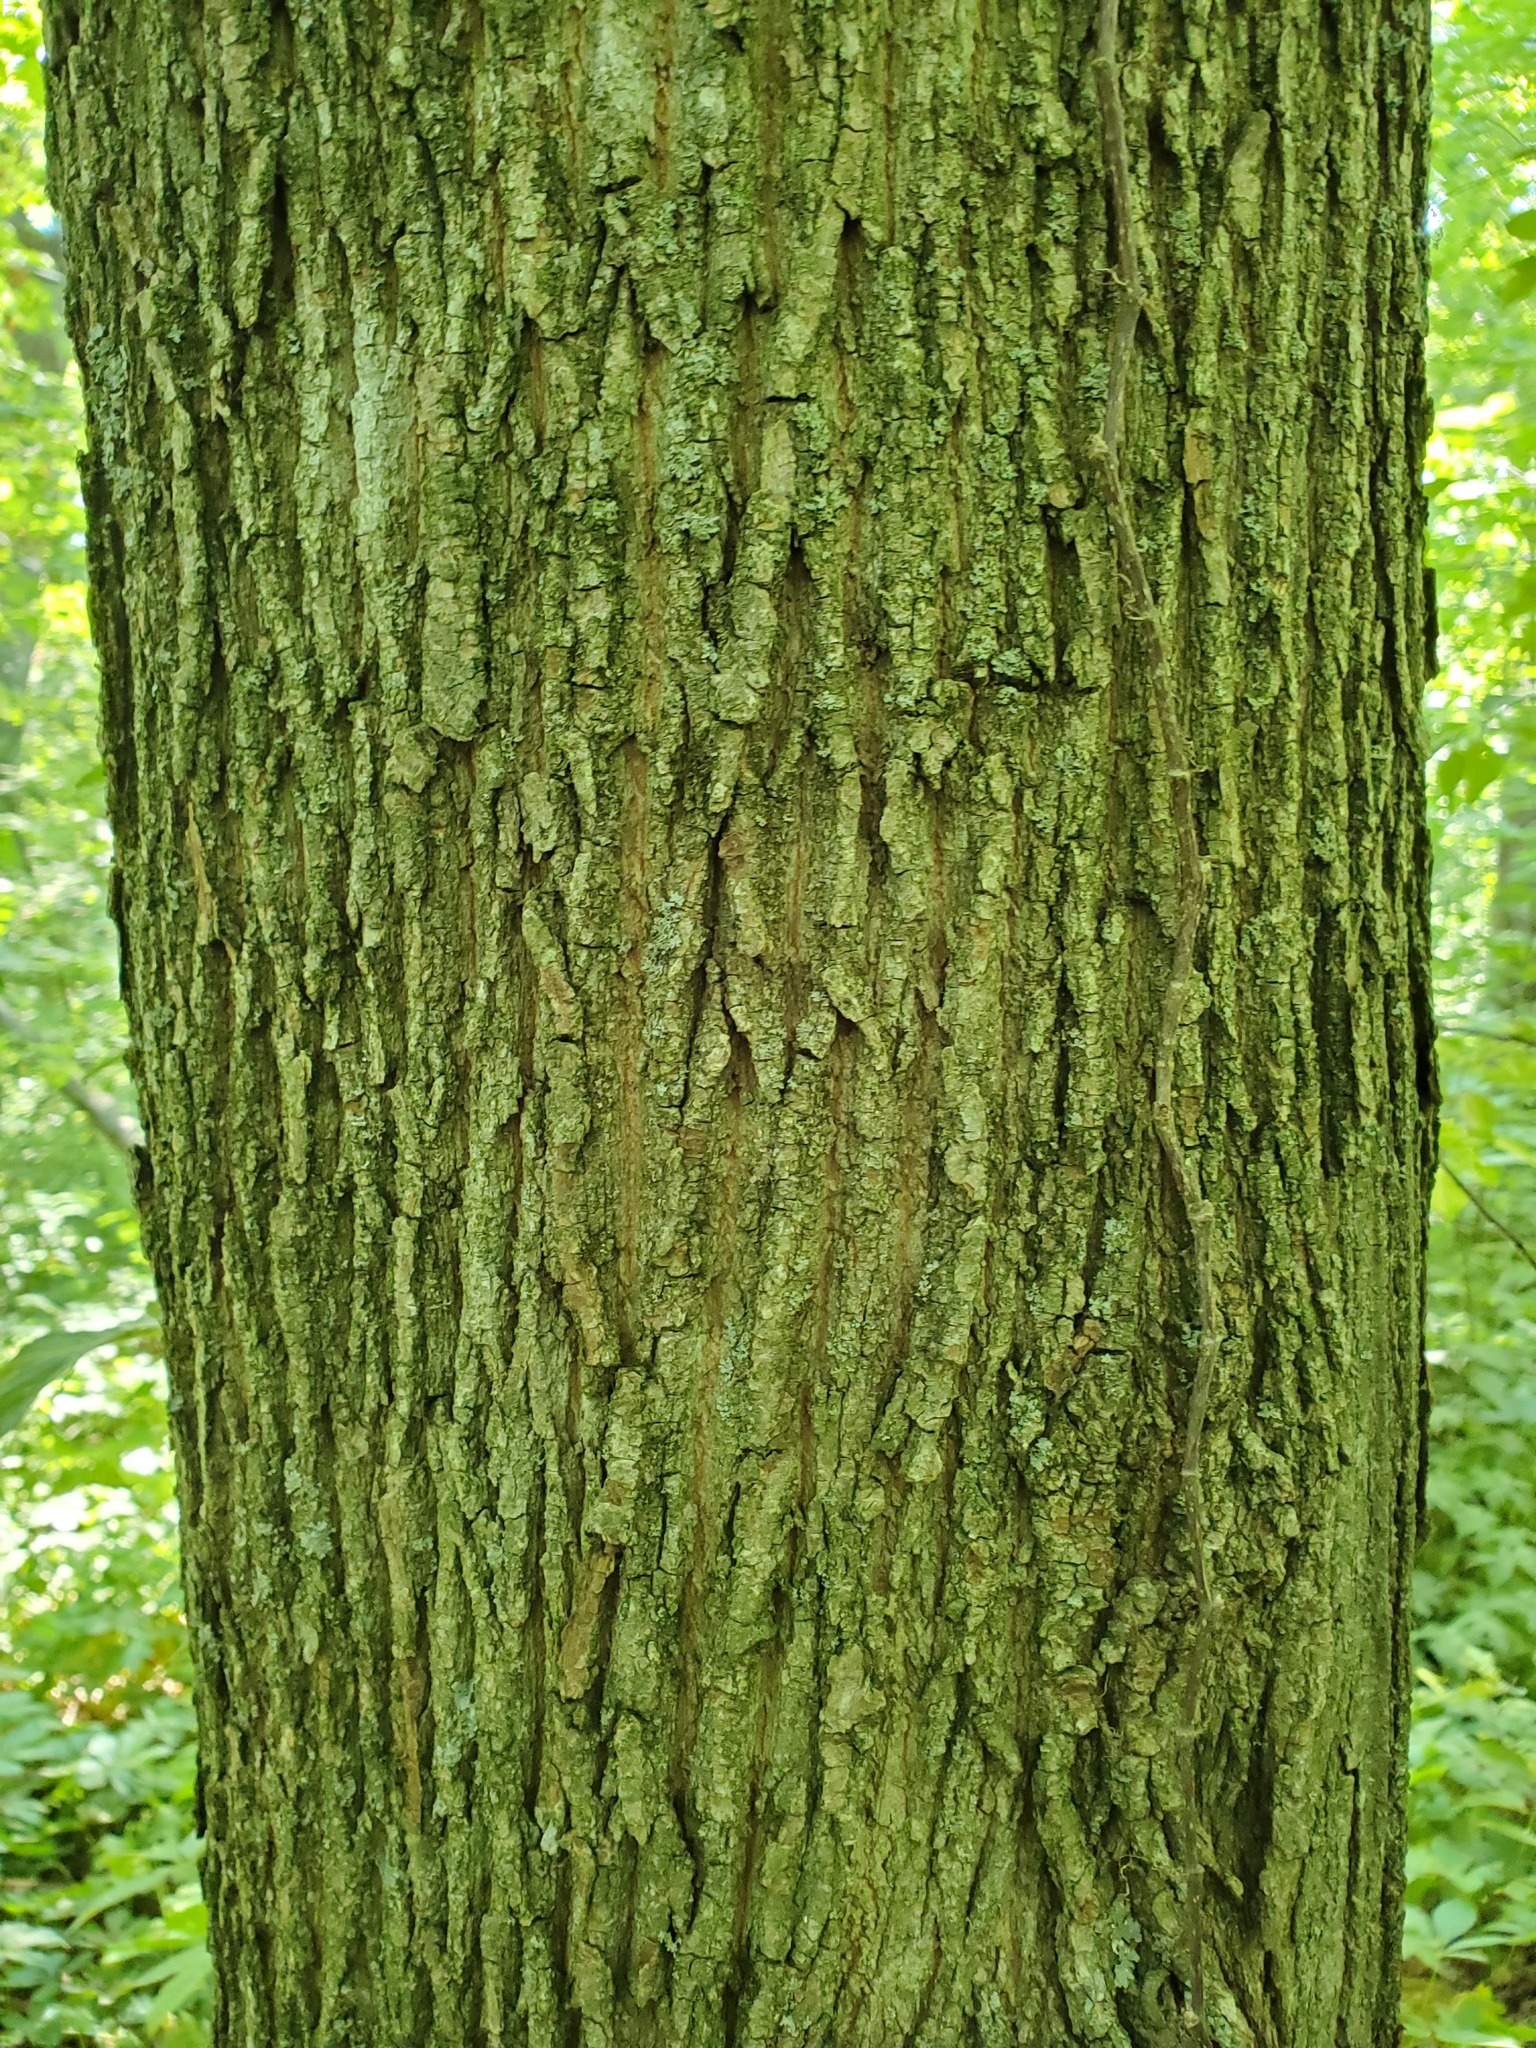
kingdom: Plantae
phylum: Tracheophyta
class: Magnoliopsida
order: Sapindales
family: Sapindaceae
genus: Acer
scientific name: Acer platanoides
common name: Norway maple
